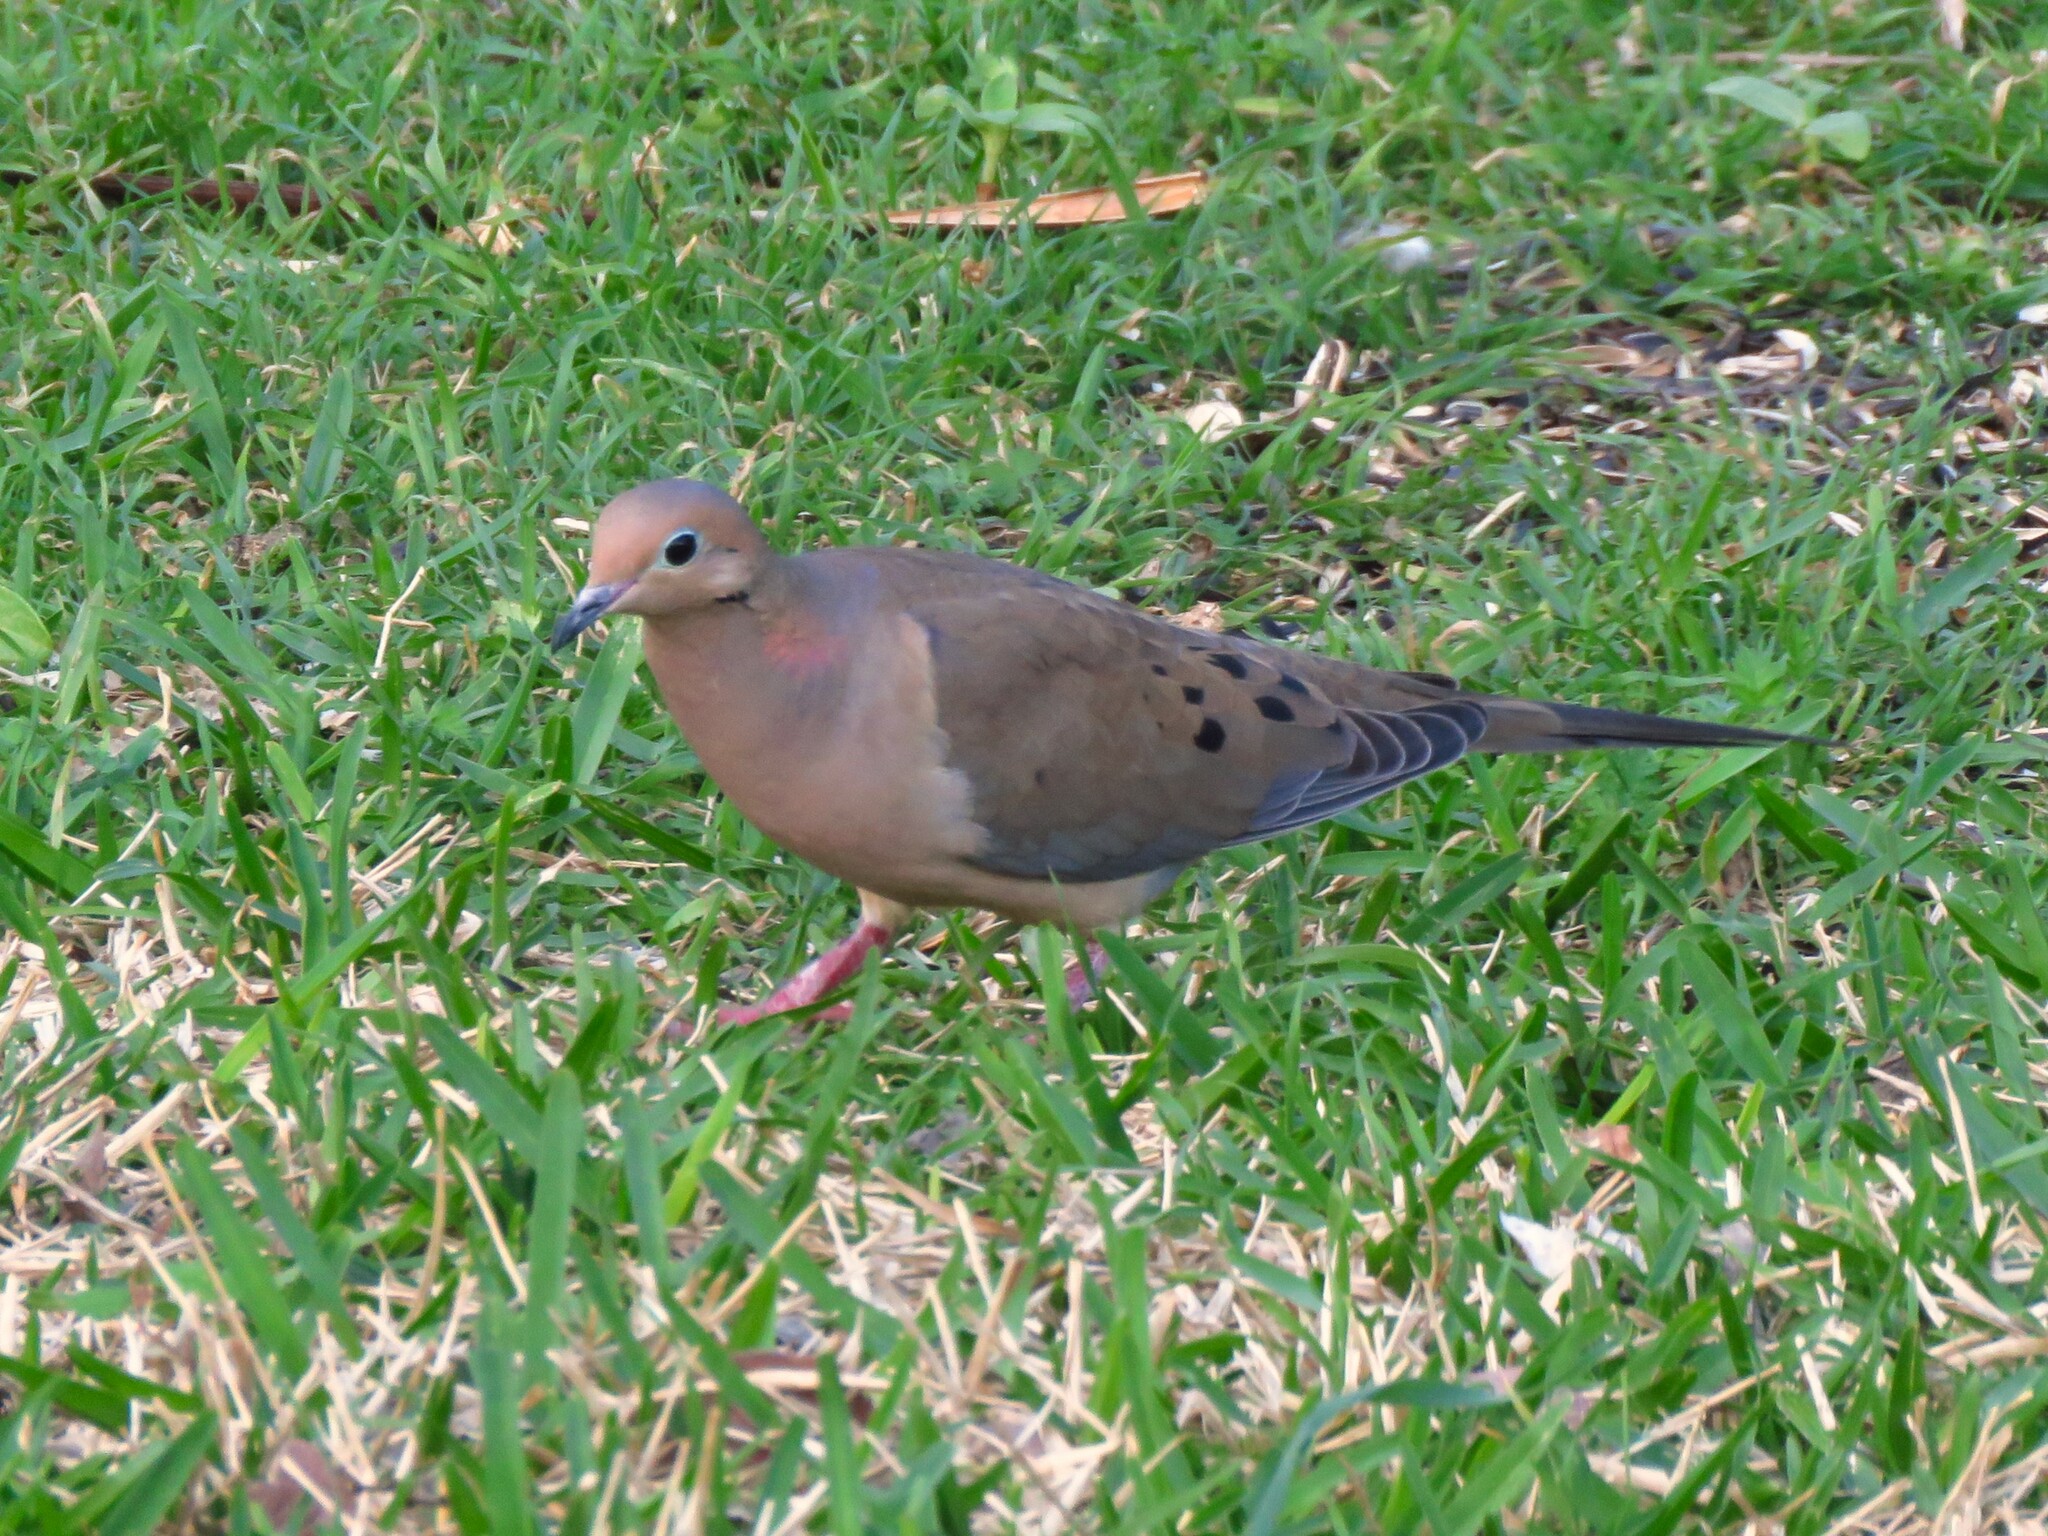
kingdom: Animalia
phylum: Chordata
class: Aves
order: Columbiformes
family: Columbidae
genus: Zenaida
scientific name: Zenaida macroura
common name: Mourning dove
